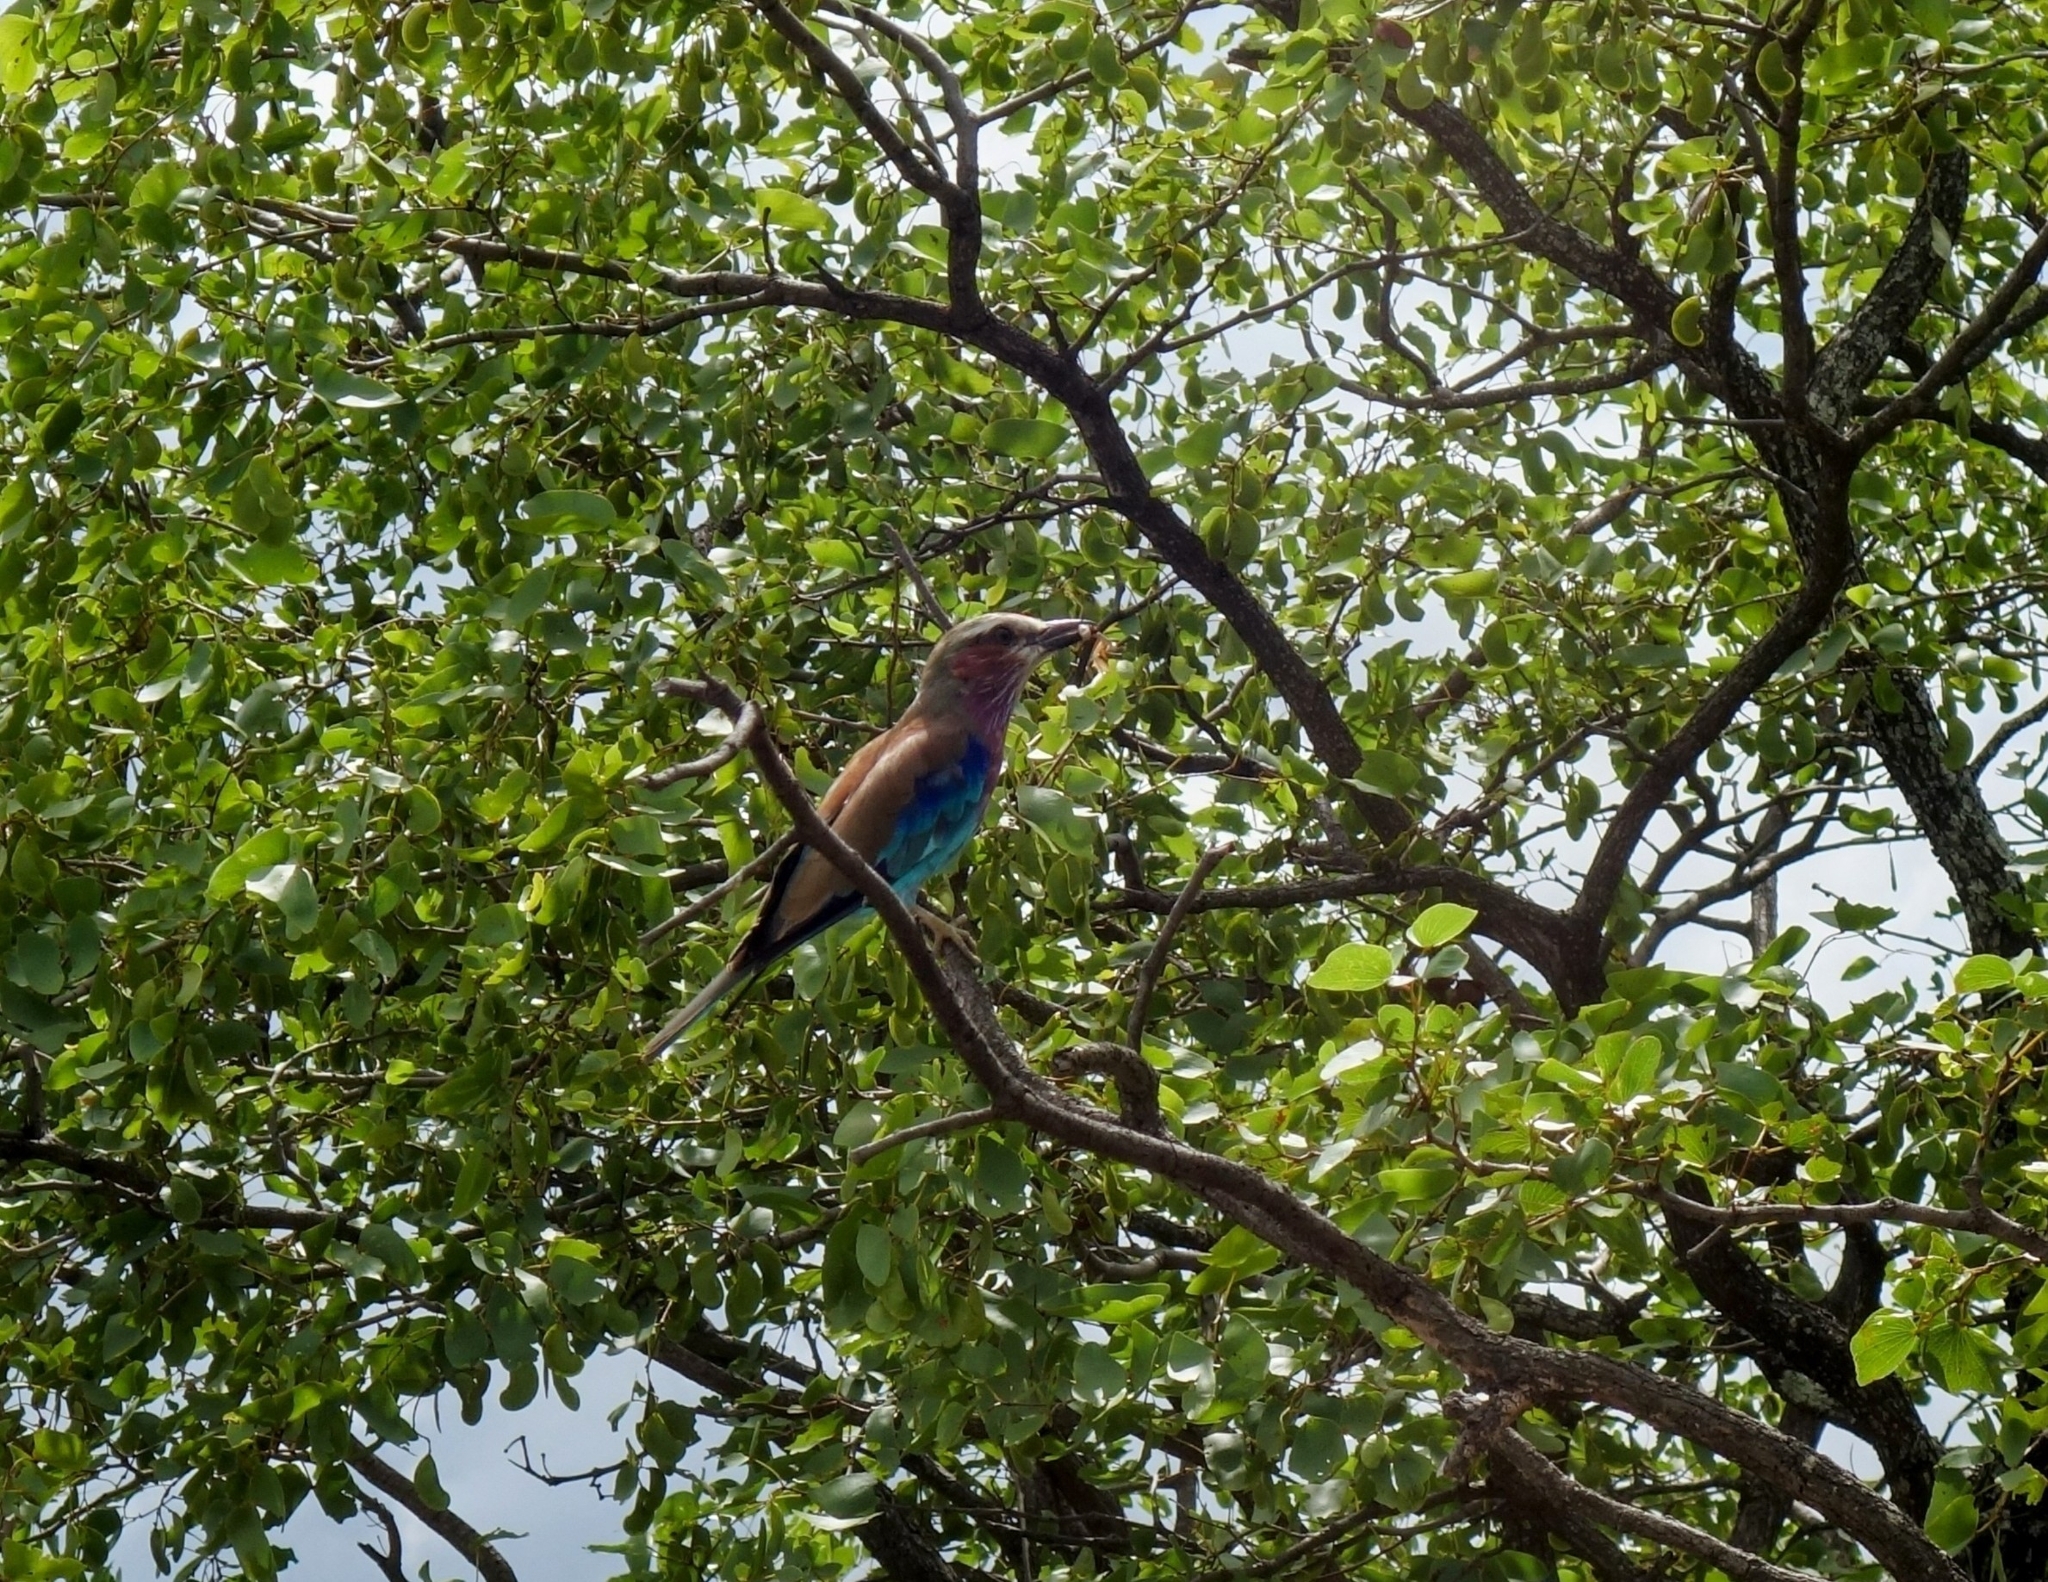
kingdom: Animalia
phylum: Chordata
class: Aves
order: Coraciiformes
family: Coraciidae
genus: Coracias
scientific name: Coracias caudatus
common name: Lilac-breasted roller
